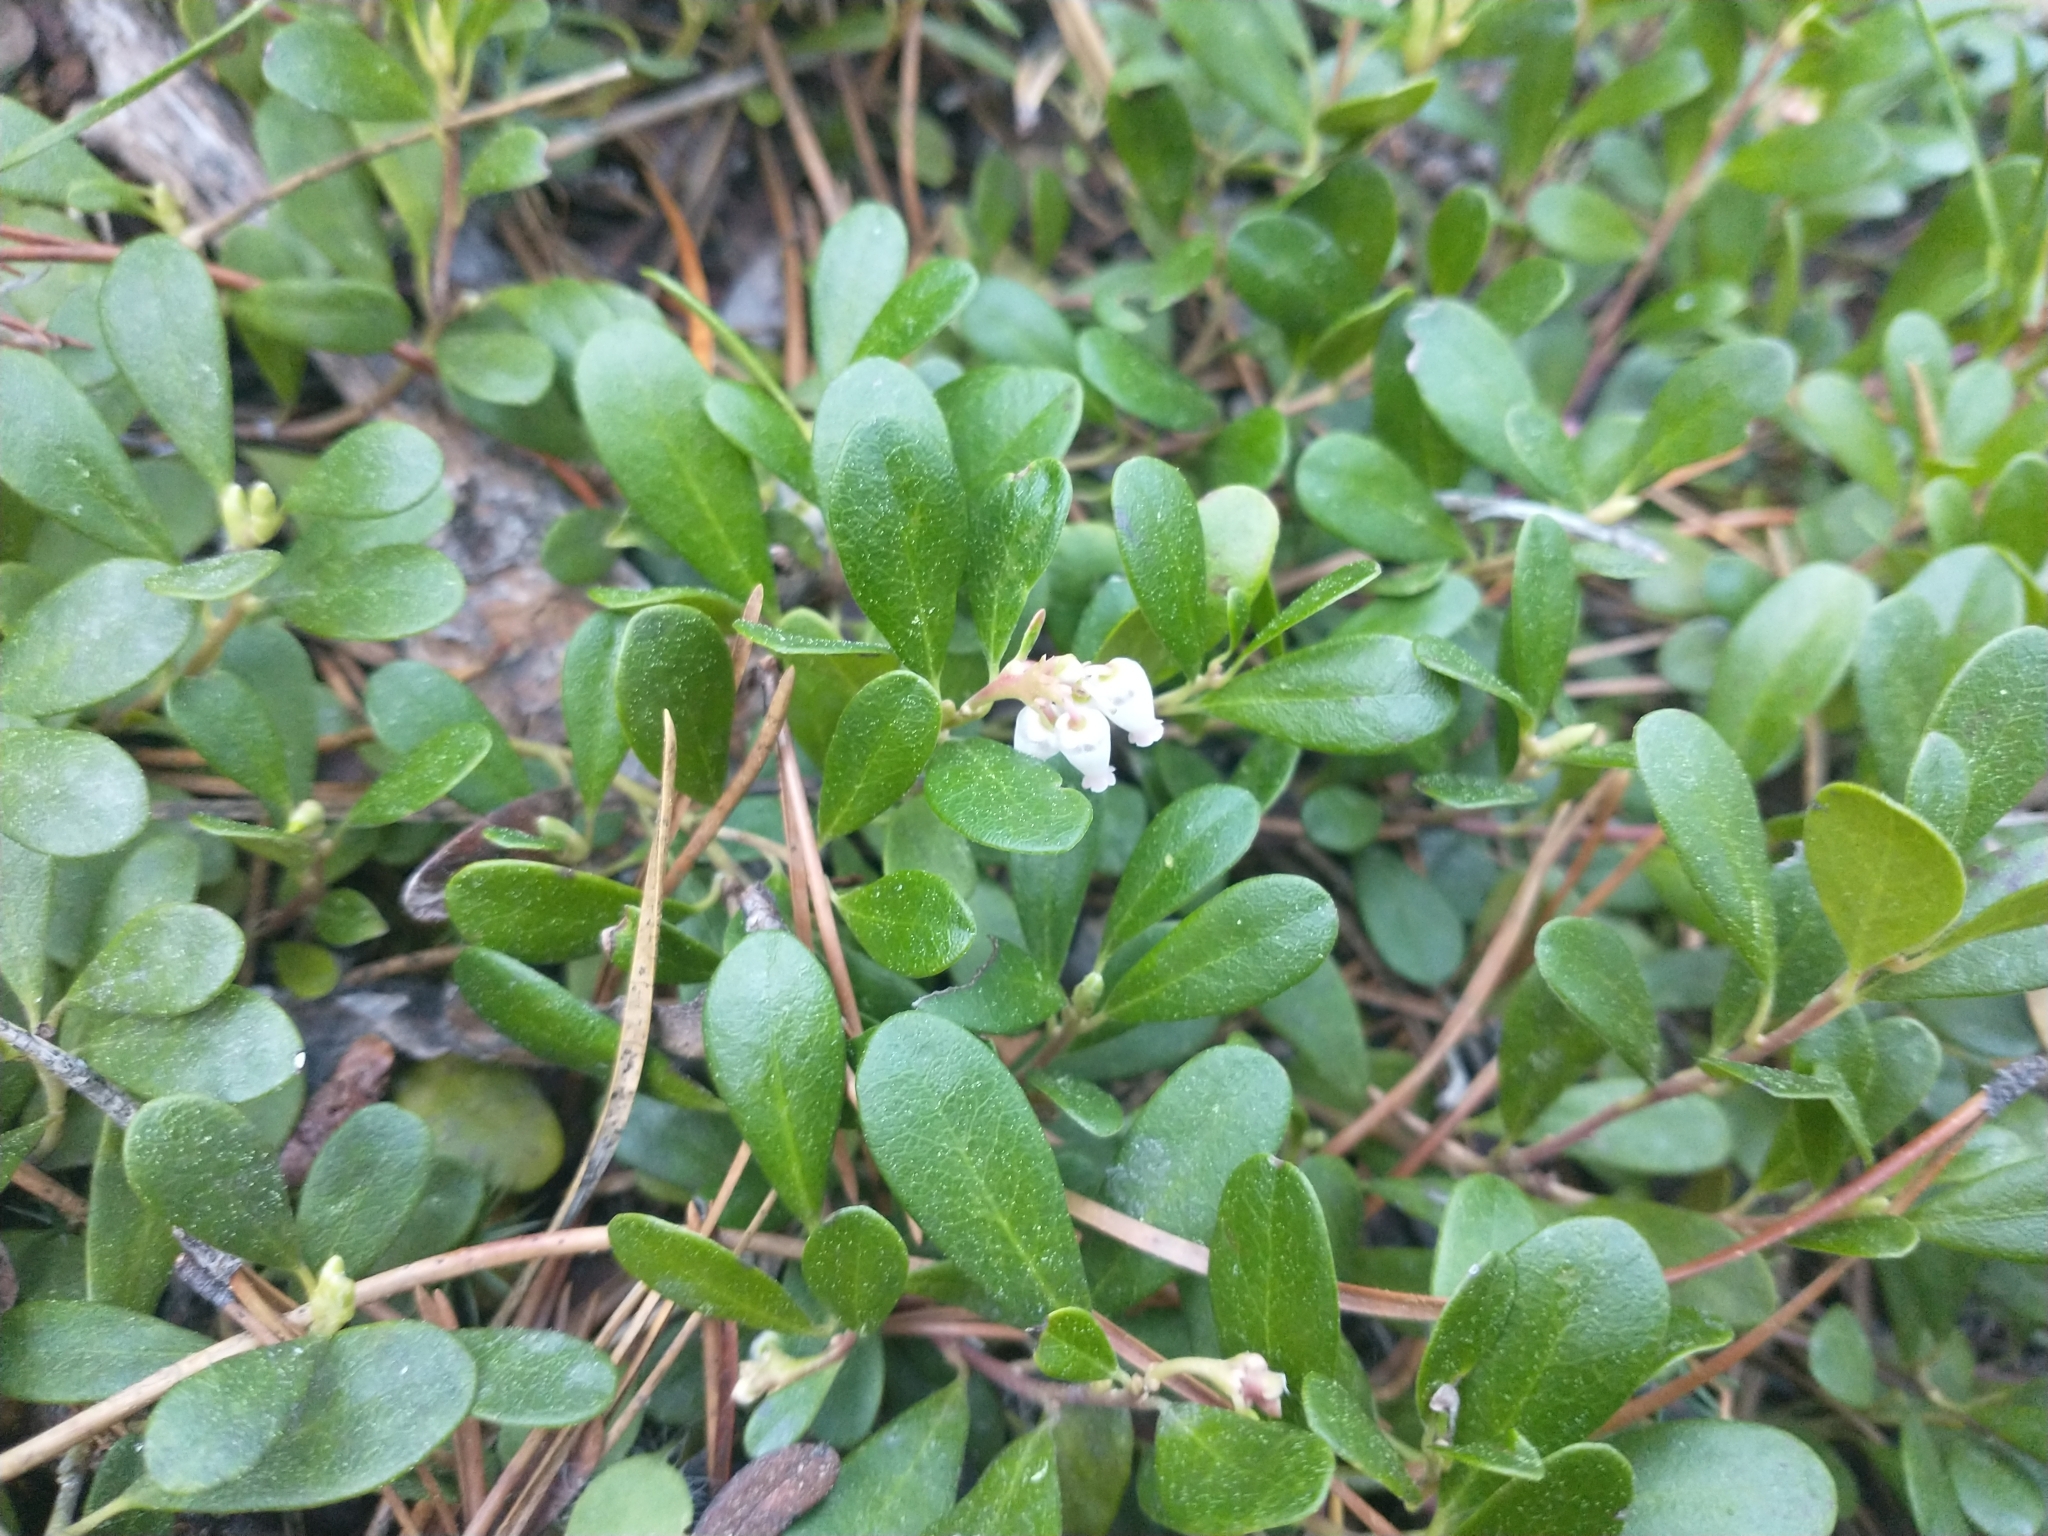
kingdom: Plantae
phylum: Tracheophyta
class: Magnoliopsida
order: Ericales
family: Ericaceae
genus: Arctostaphylos
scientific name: Arctostaphylos uva-ursi
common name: Bearberry
